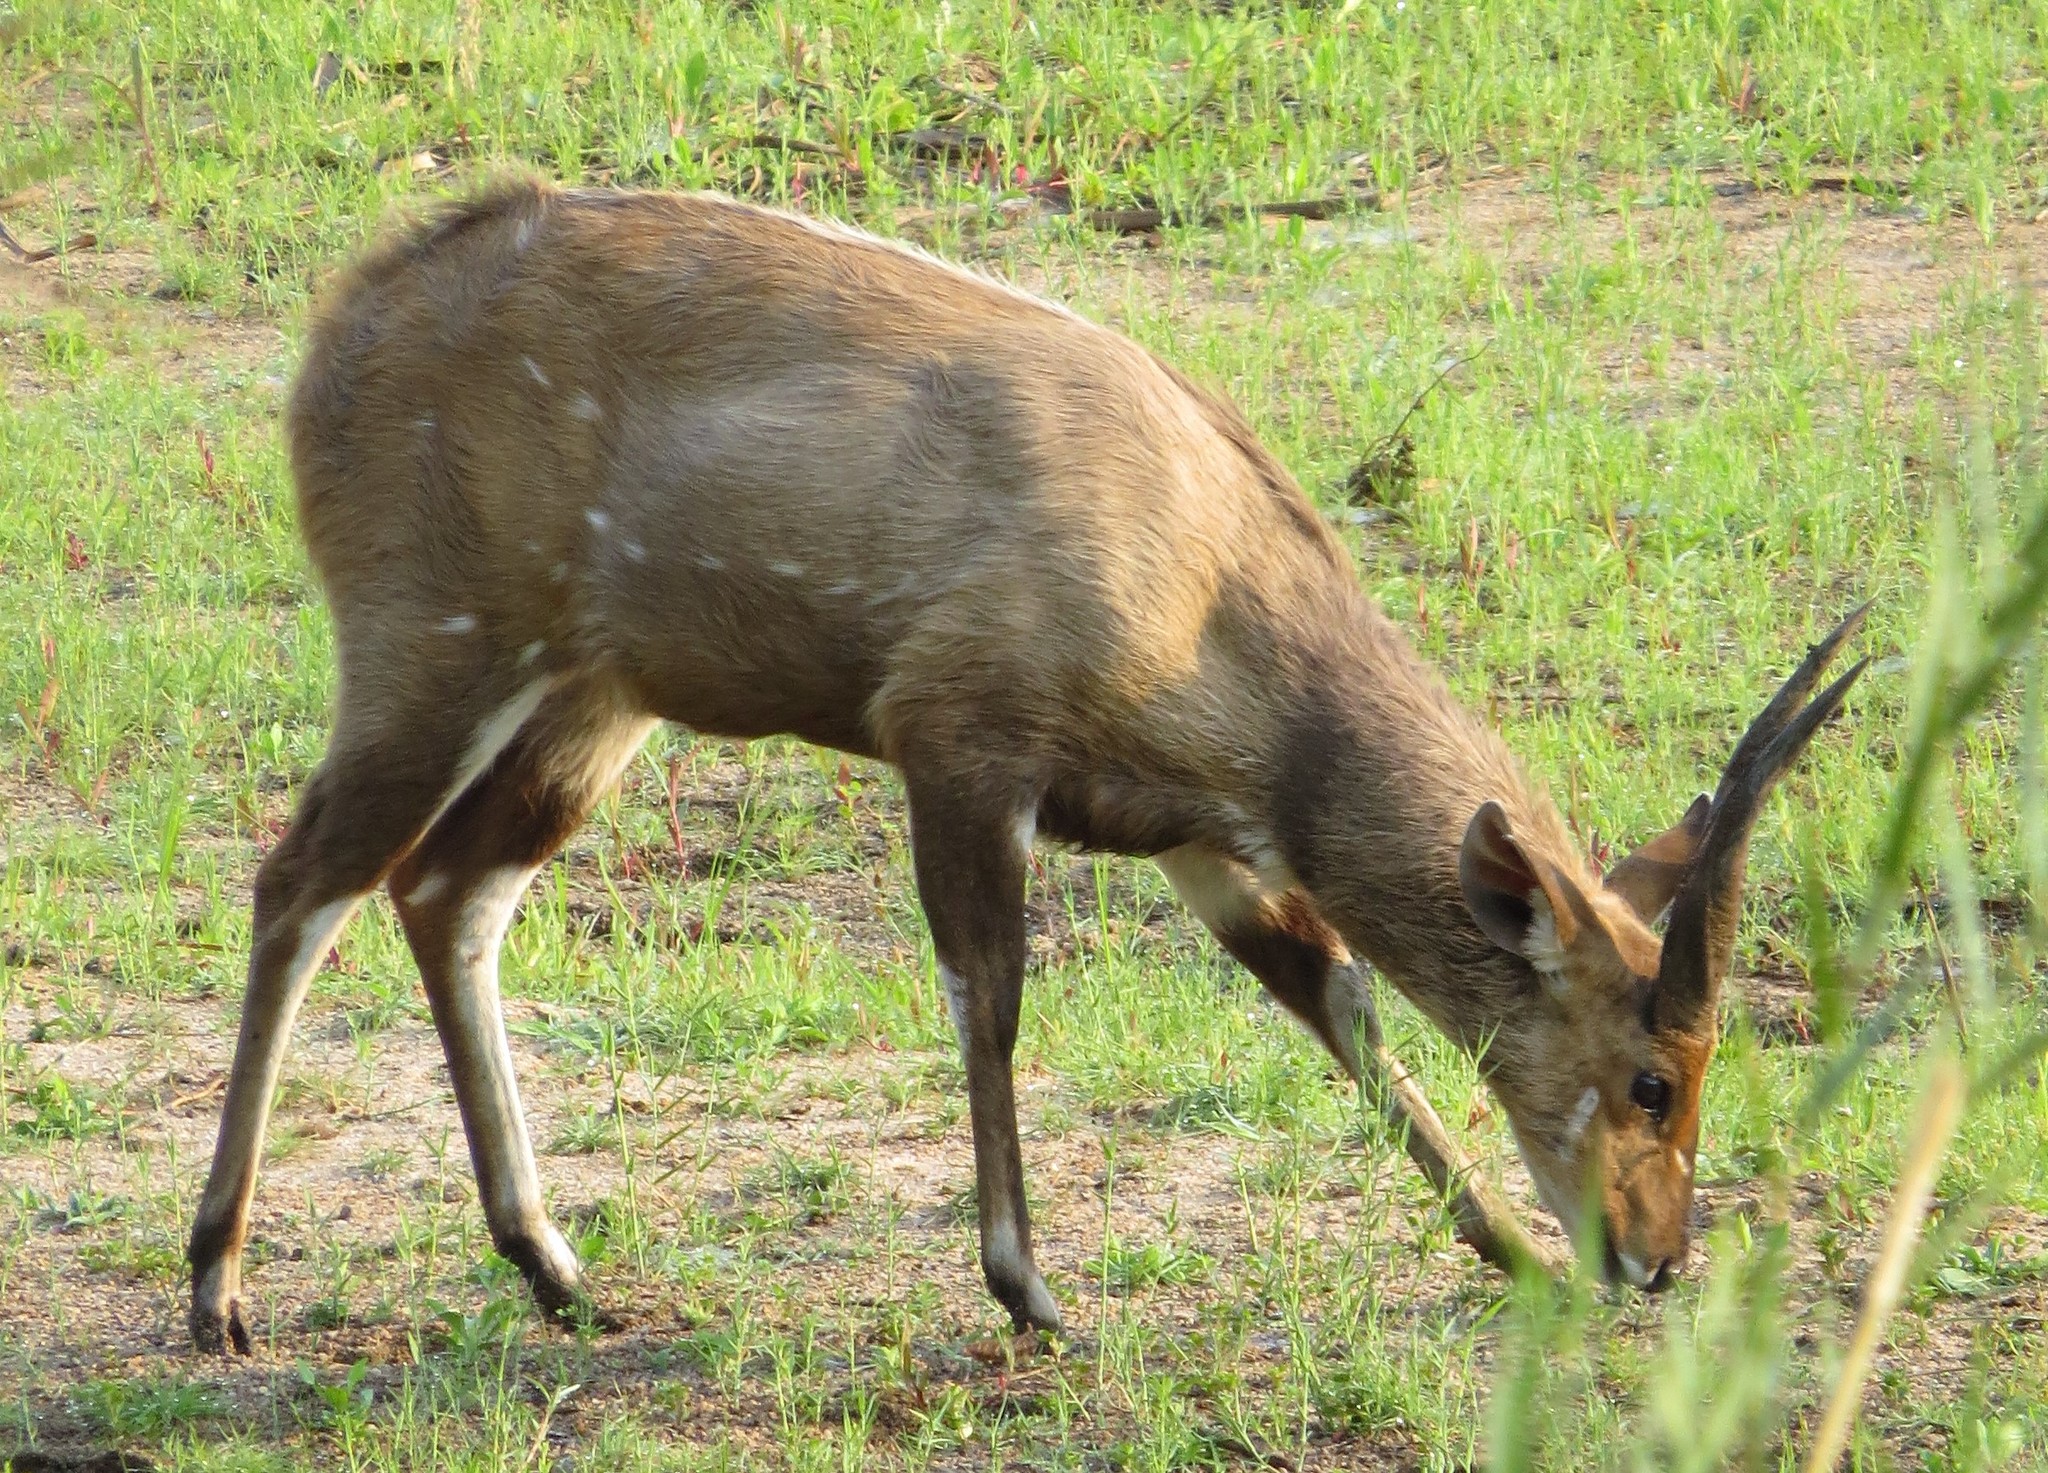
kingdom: Animalia
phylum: Chordata
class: Mammalia
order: Artiodactyla
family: Bovidae
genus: Tragelaphus
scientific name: Tragelaphus scriptus
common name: Bushbuck
